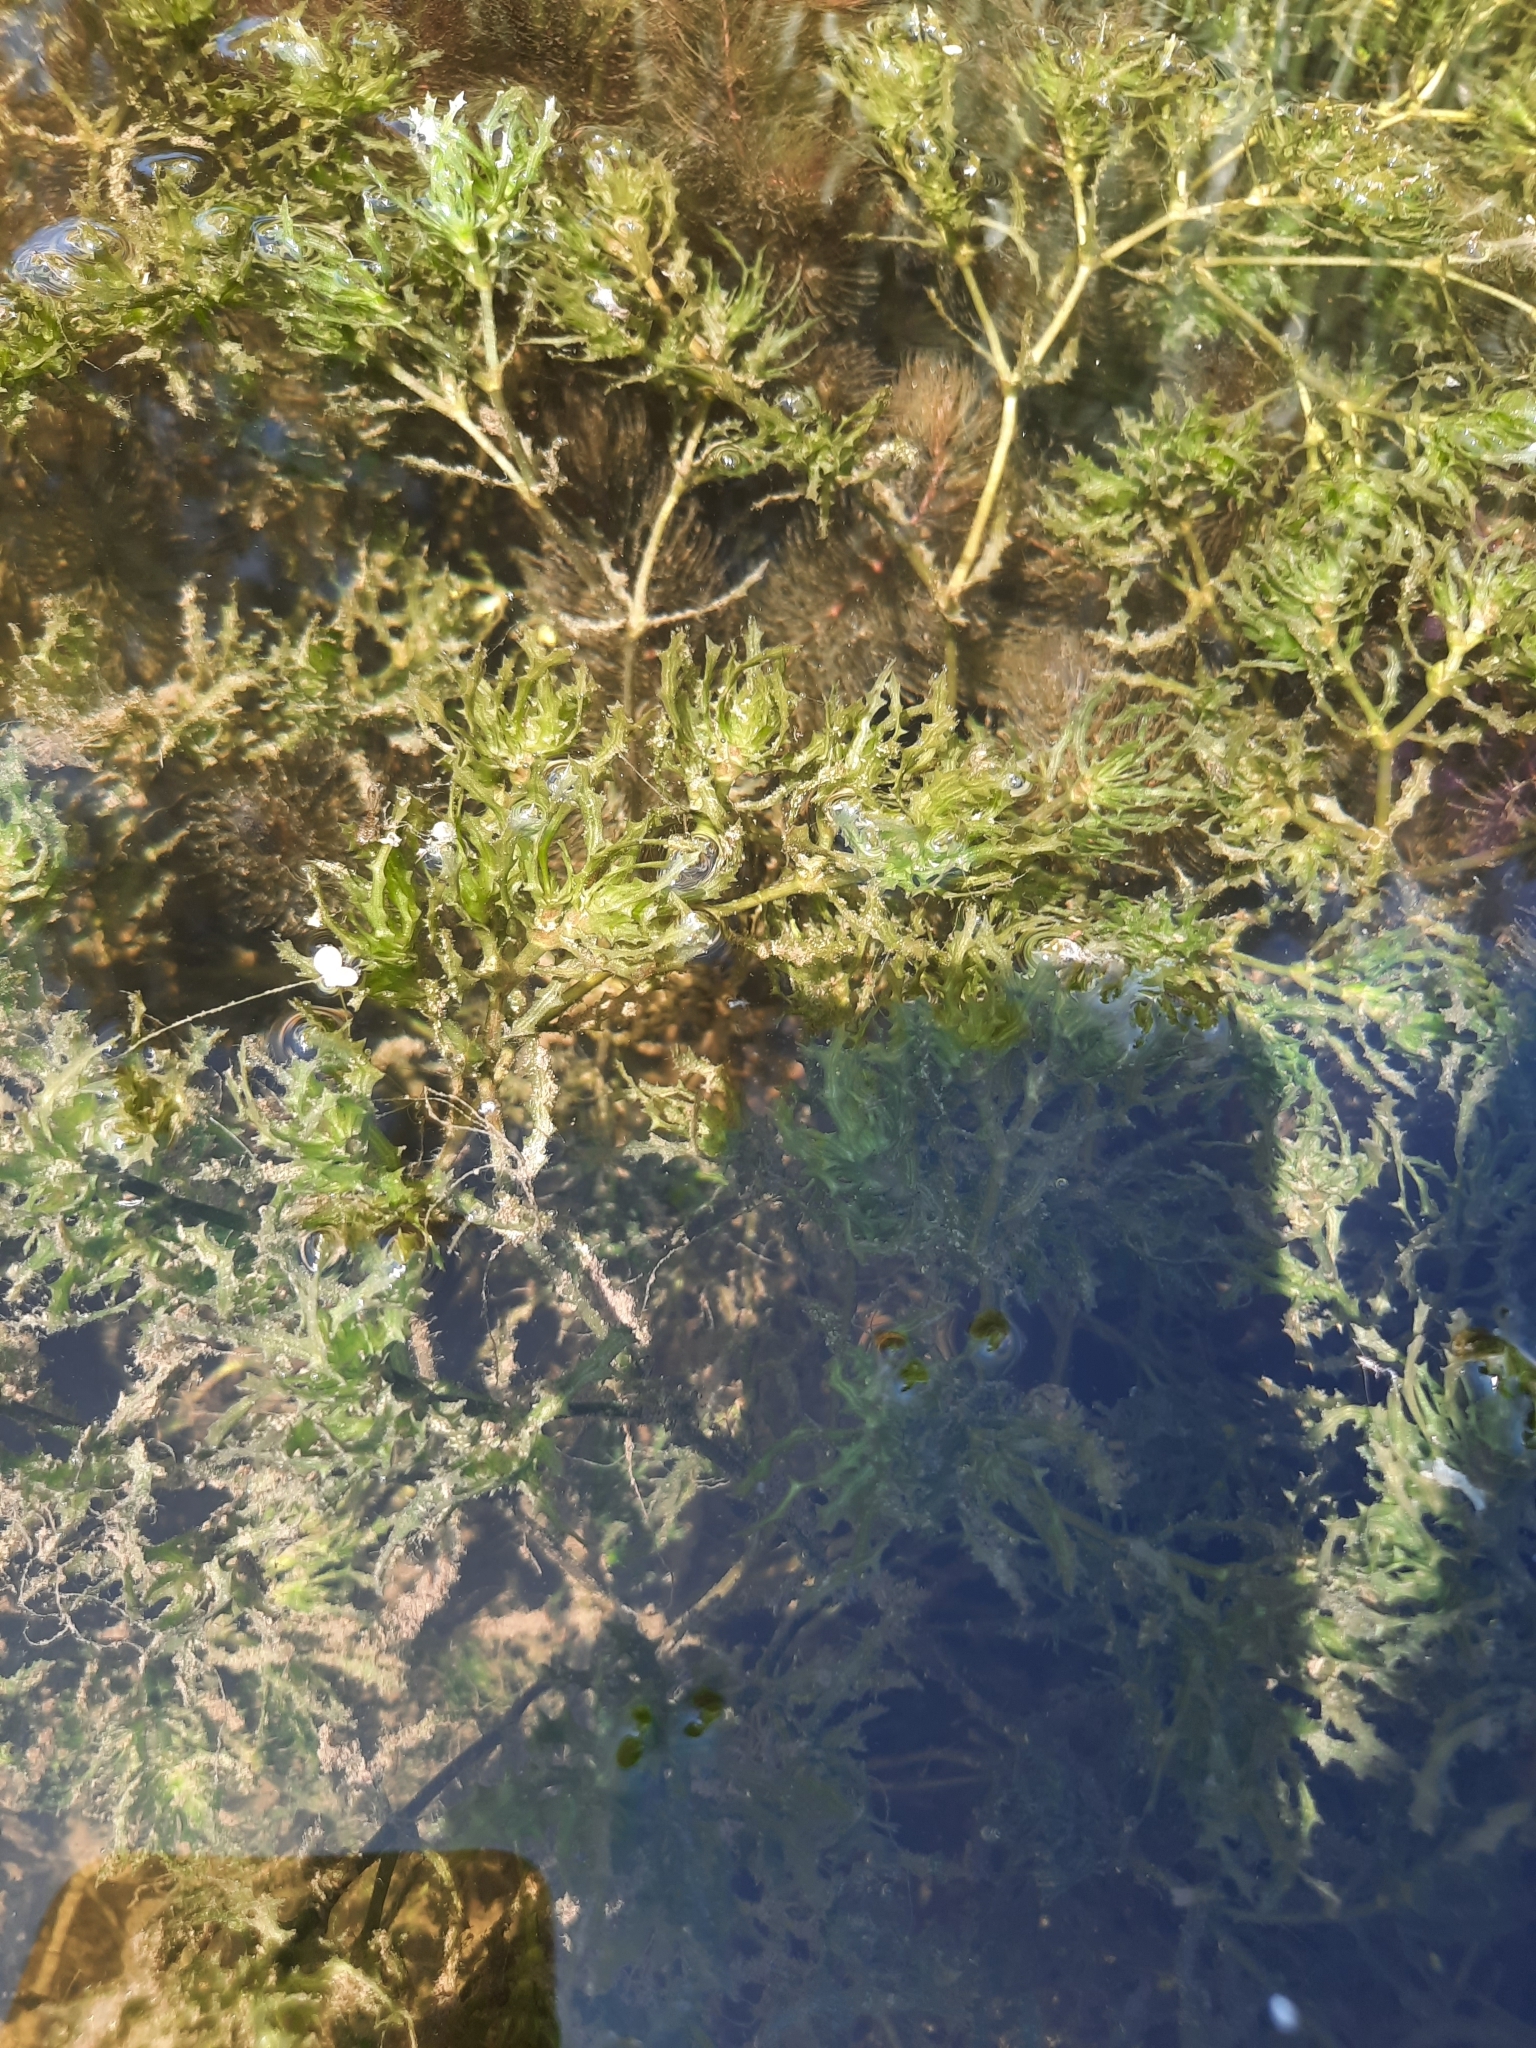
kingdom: Plantae
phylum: Tracheophyta
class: Liliopsida
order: Alismatales
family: Hydrocharitaceae
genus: Najas
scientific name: Najas marina
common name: Holly-leaved naiad
